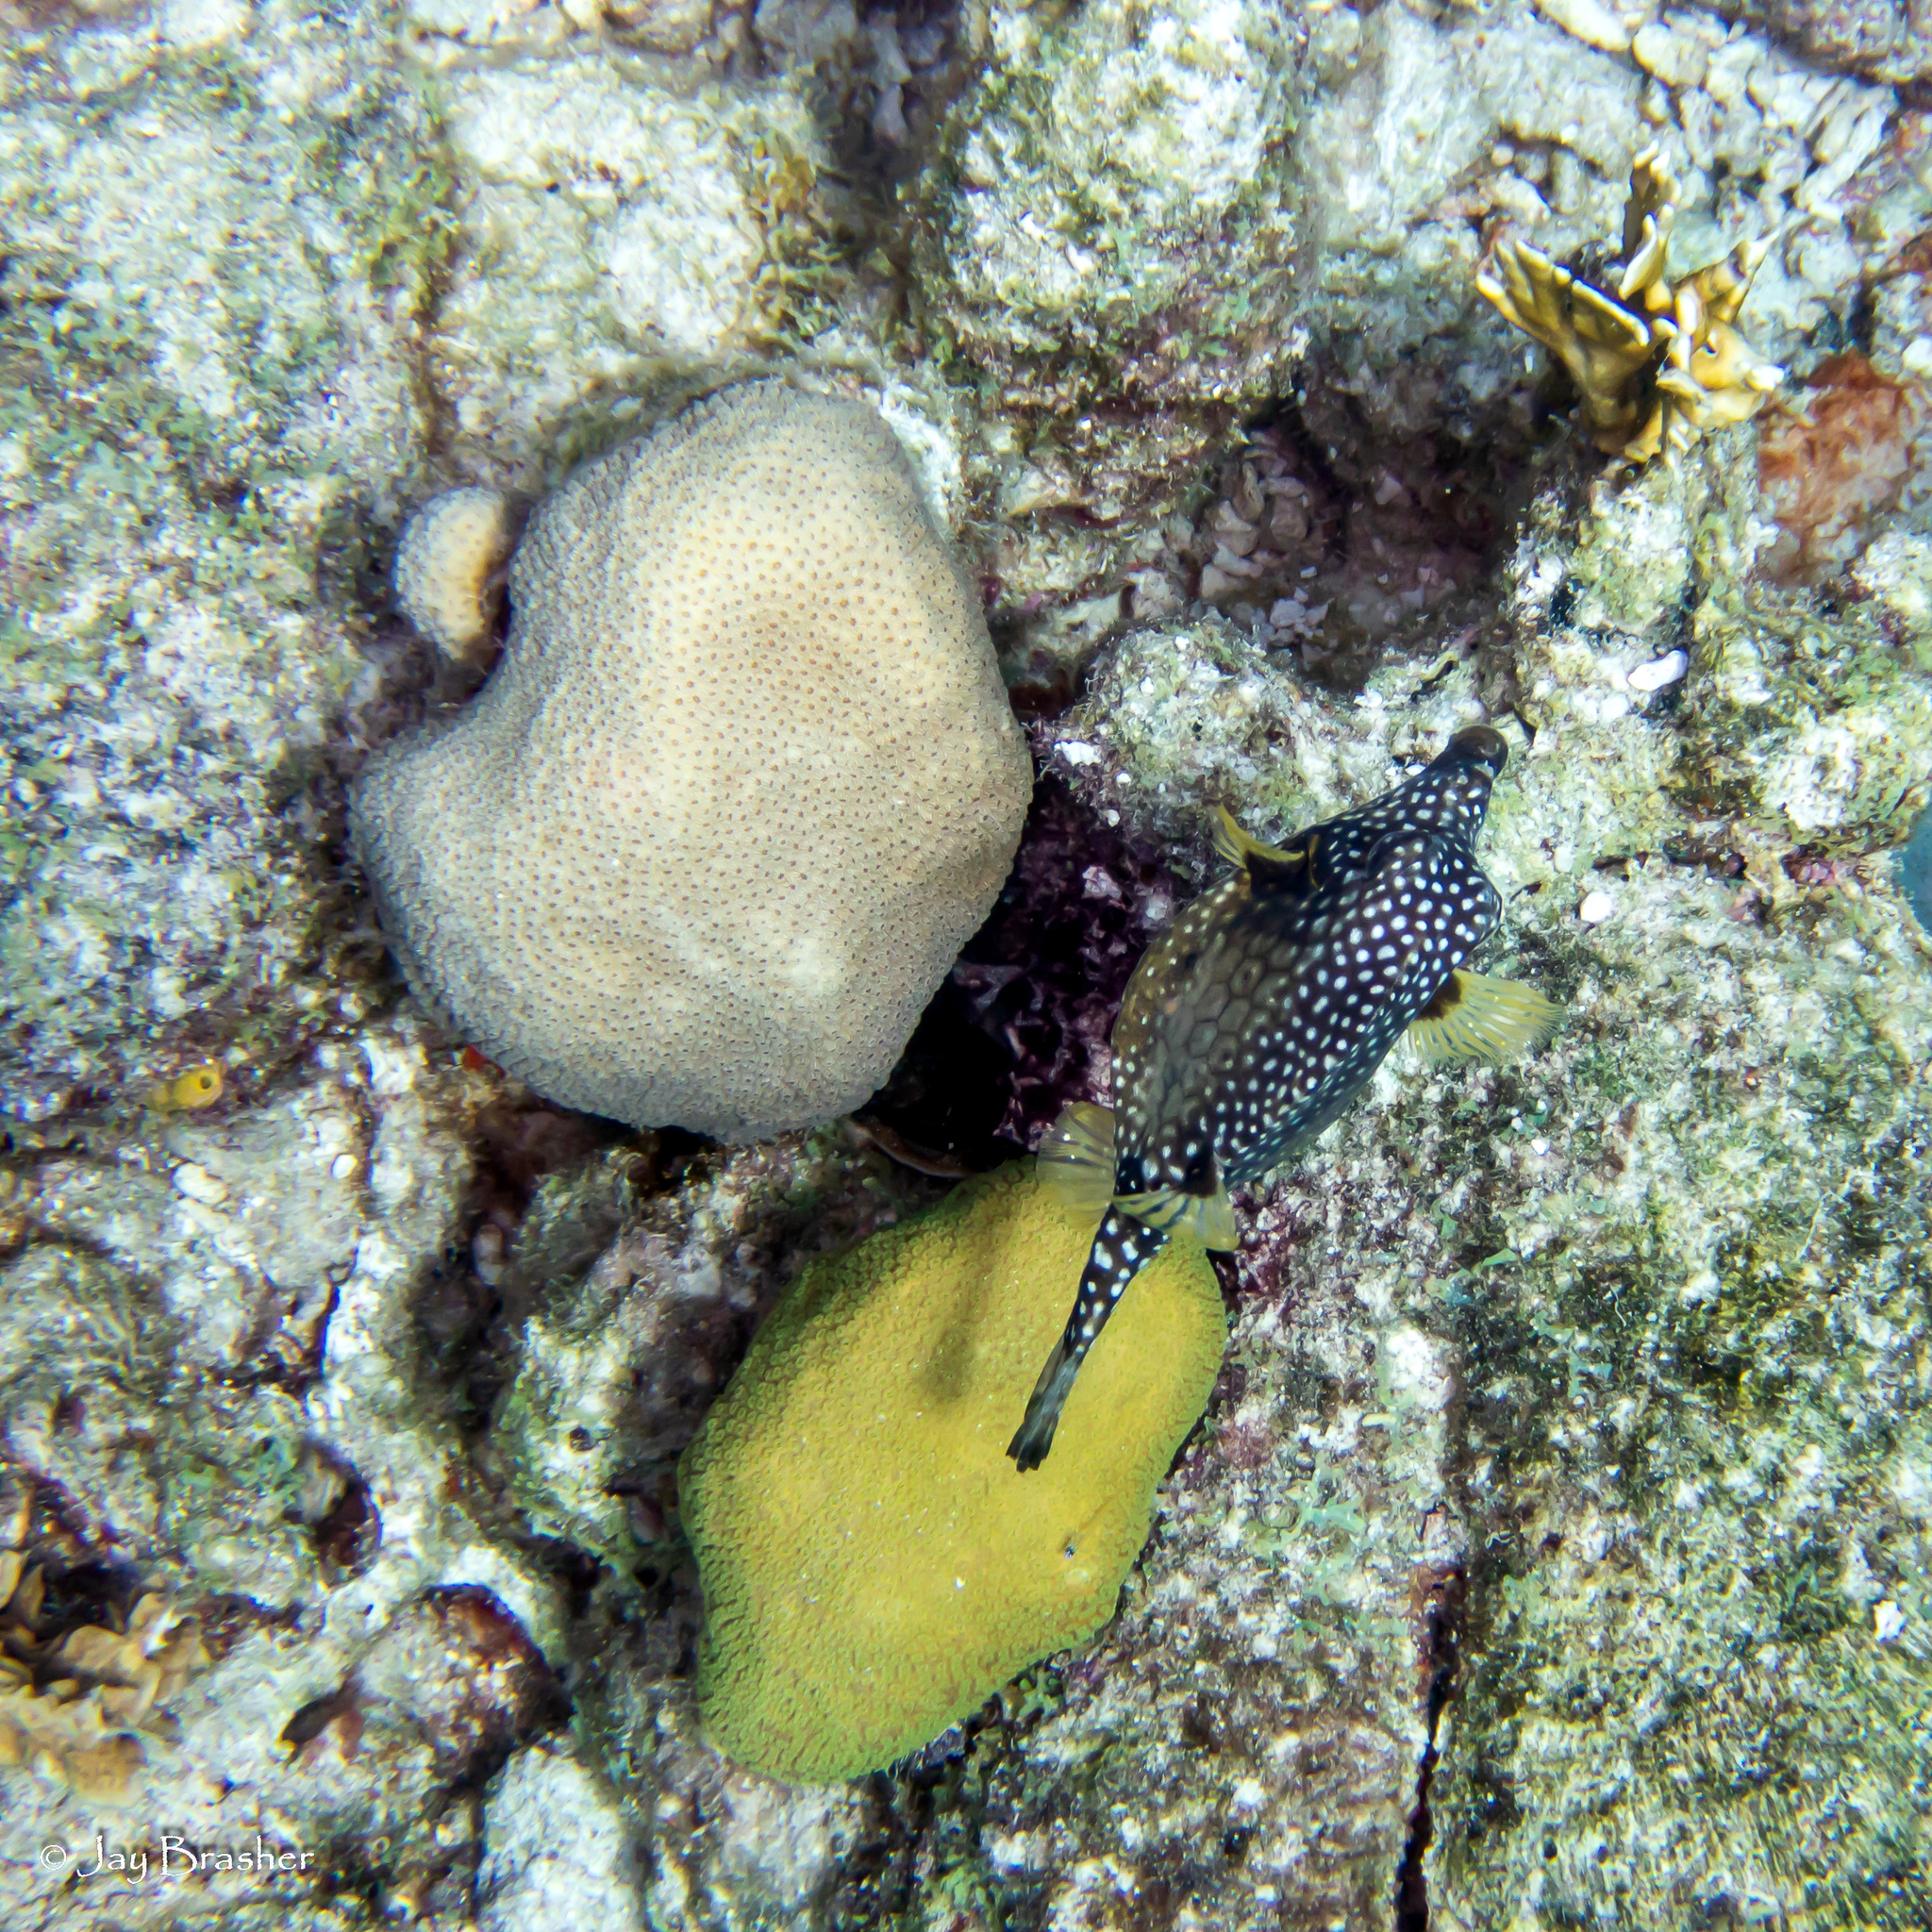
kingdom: Animalia
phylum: Chordata
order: Perciformes
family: Gobiidae
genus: Coryphopterus
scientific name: Coryphopterus lipernes
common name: Peppermint goby
